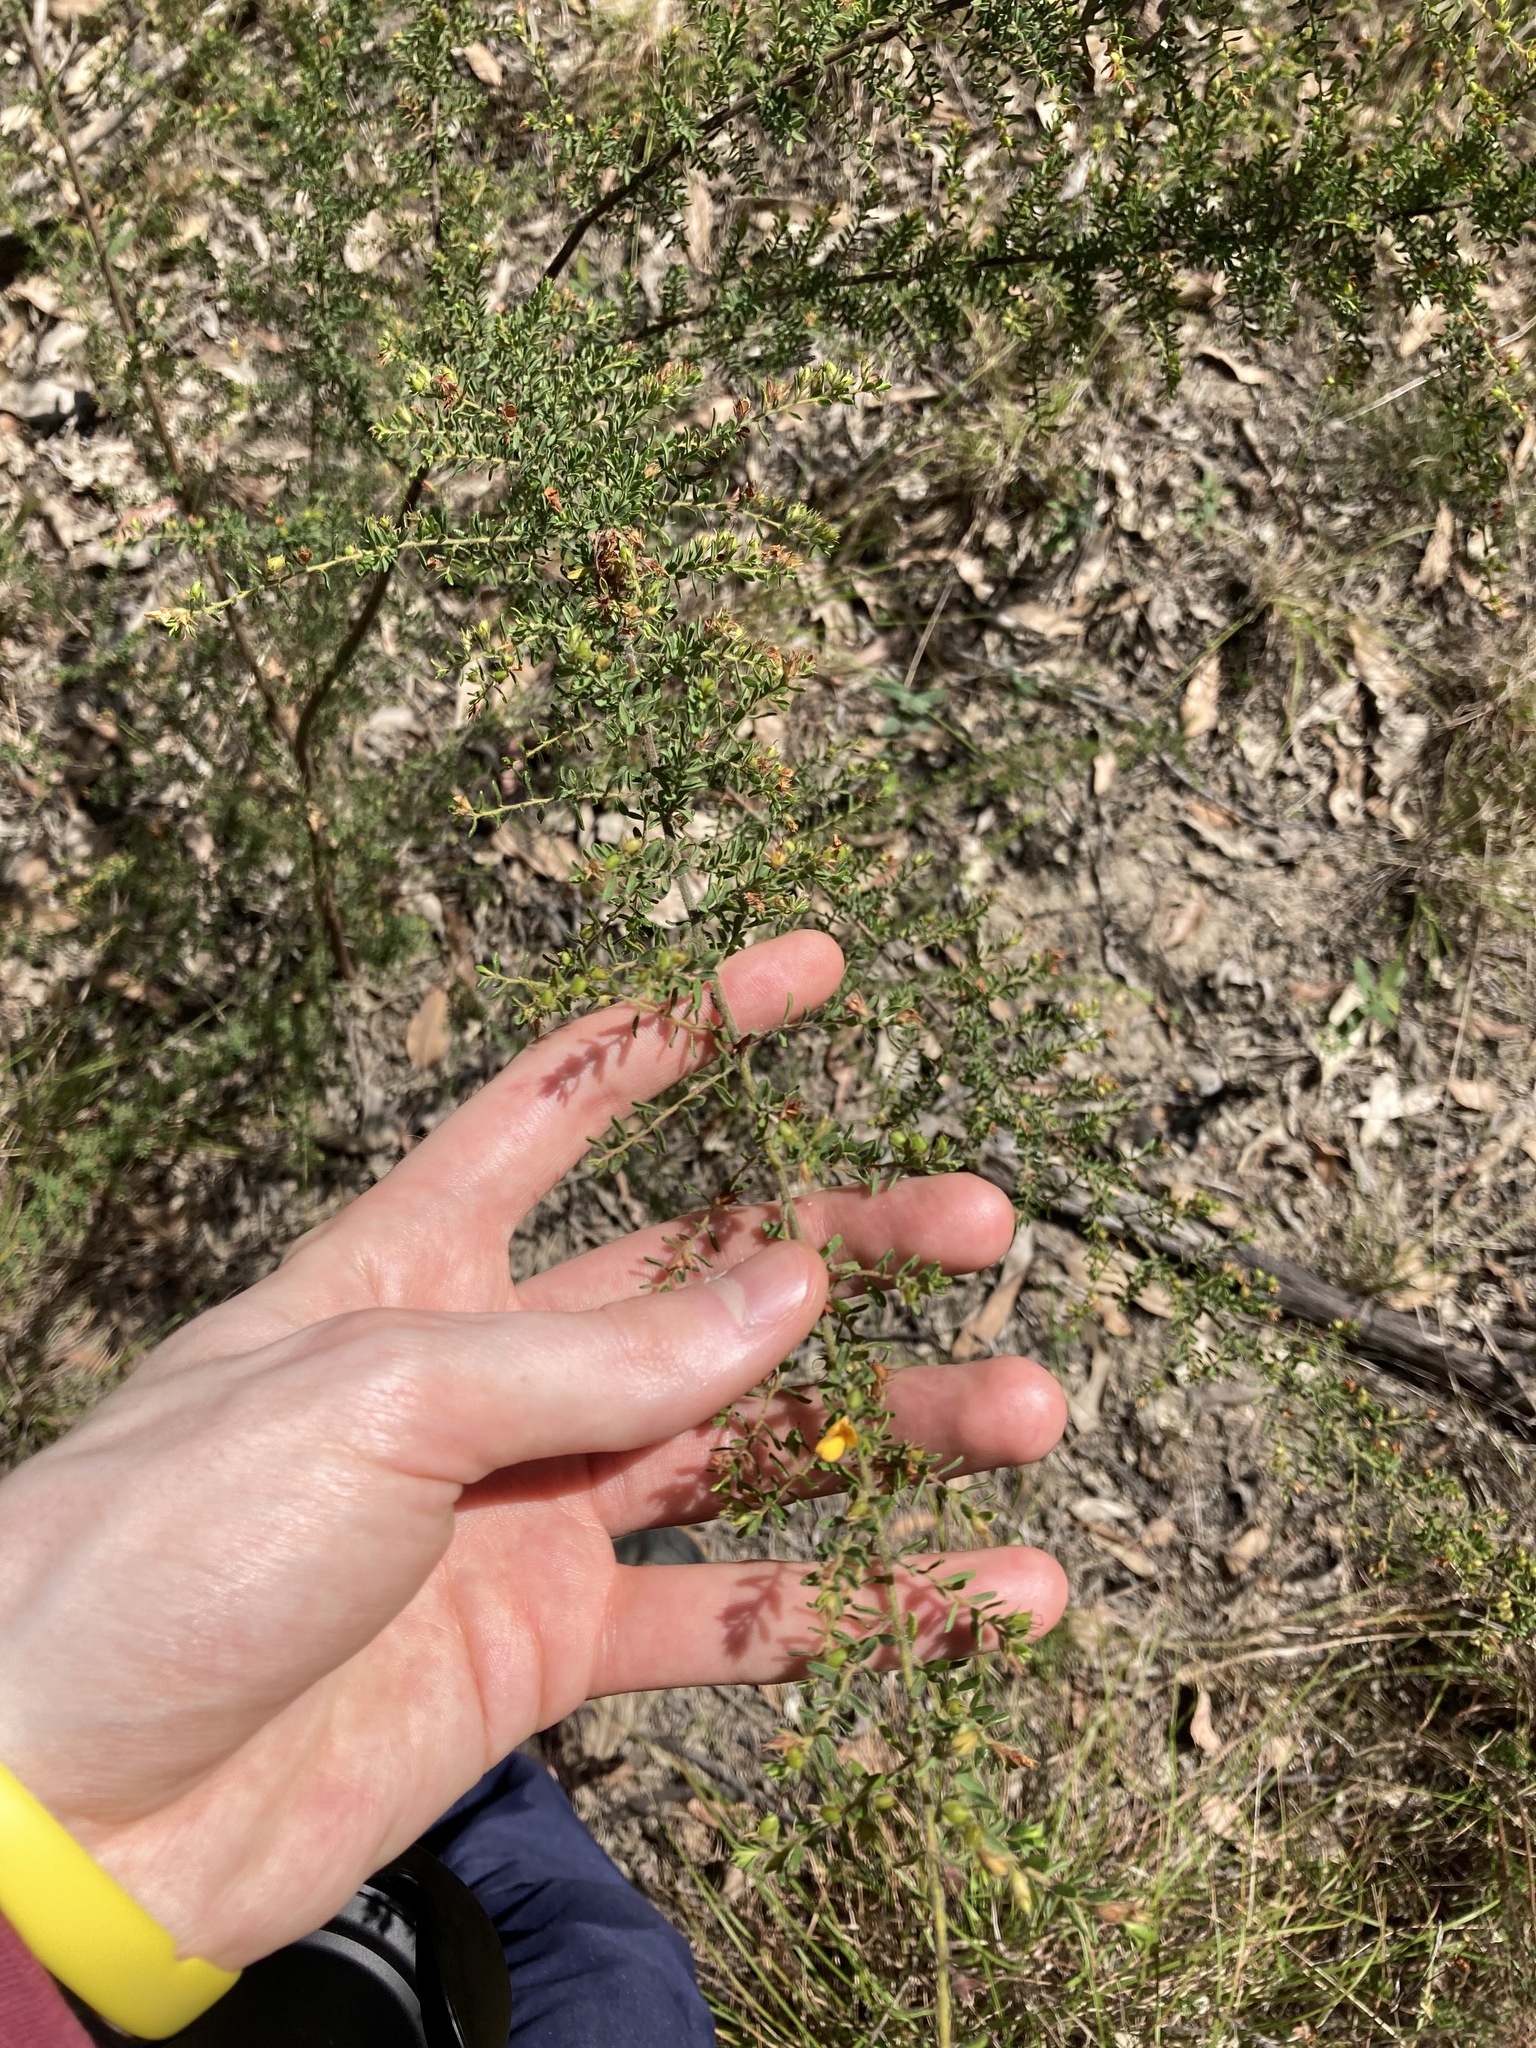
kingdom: Plantae
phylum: Tracheophyta
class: Magnoliopsida
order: Fabales
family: Fabaceae
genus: Pultenaea
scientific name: Pultenaea villosa
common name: Bronze bush-pea
